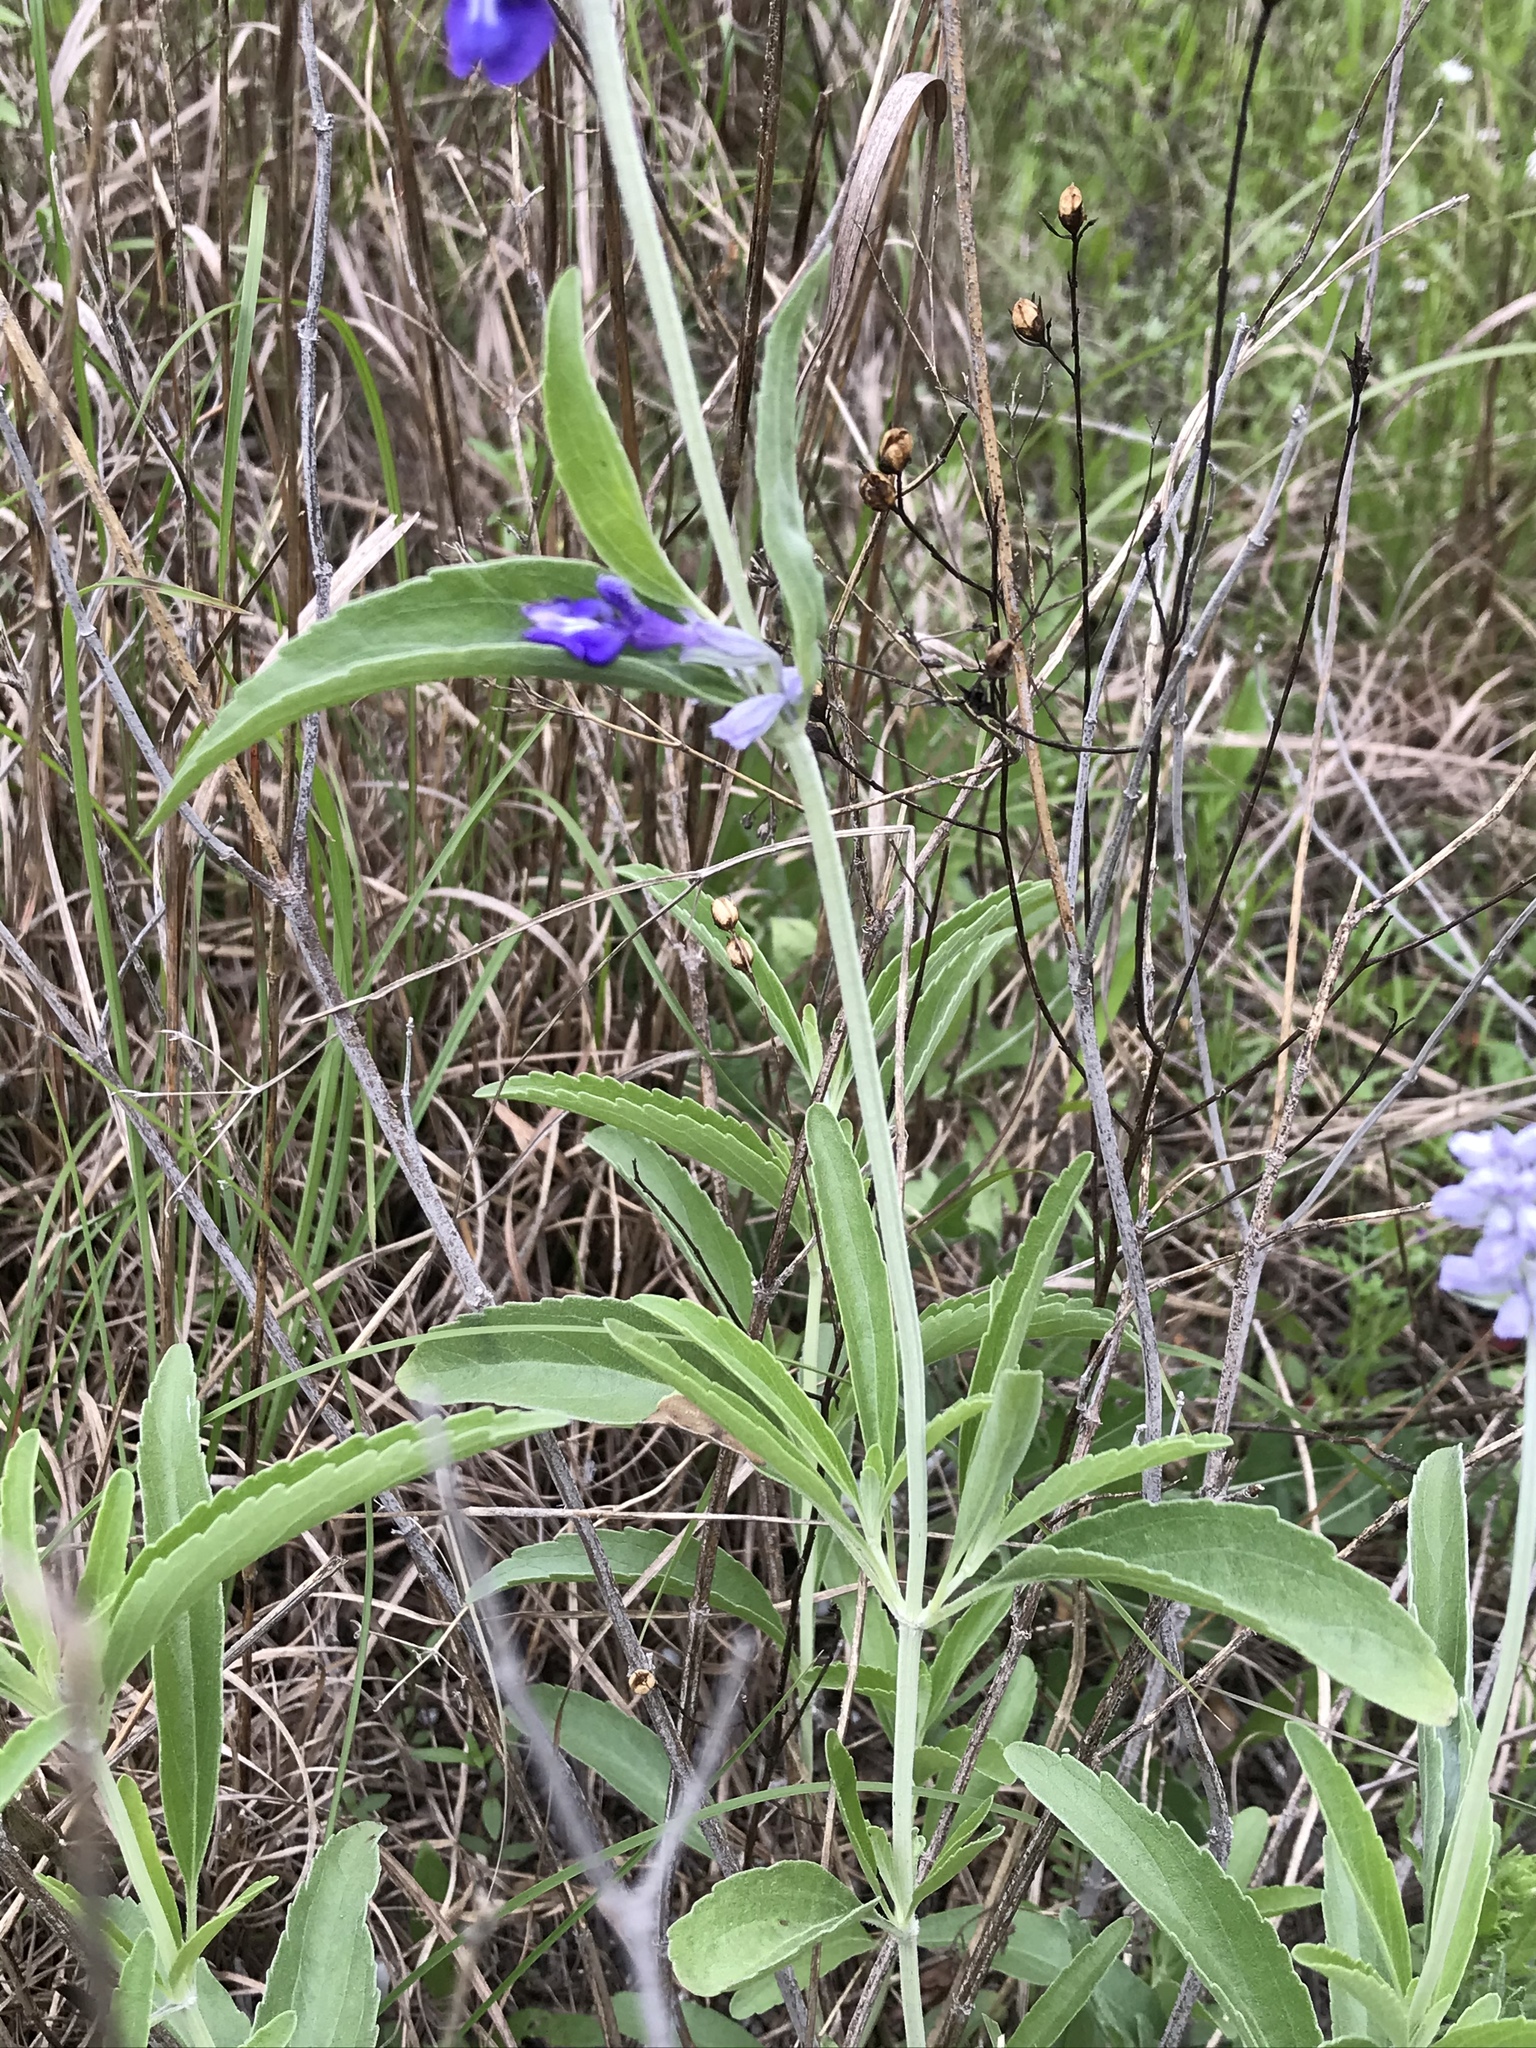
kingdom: Plantae
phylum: Tracheophyta
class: Magnoliopsida
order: Lamiales
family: Lamiaceae
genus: Salvia
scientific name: Salvia farinacea
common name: Mealy sage
